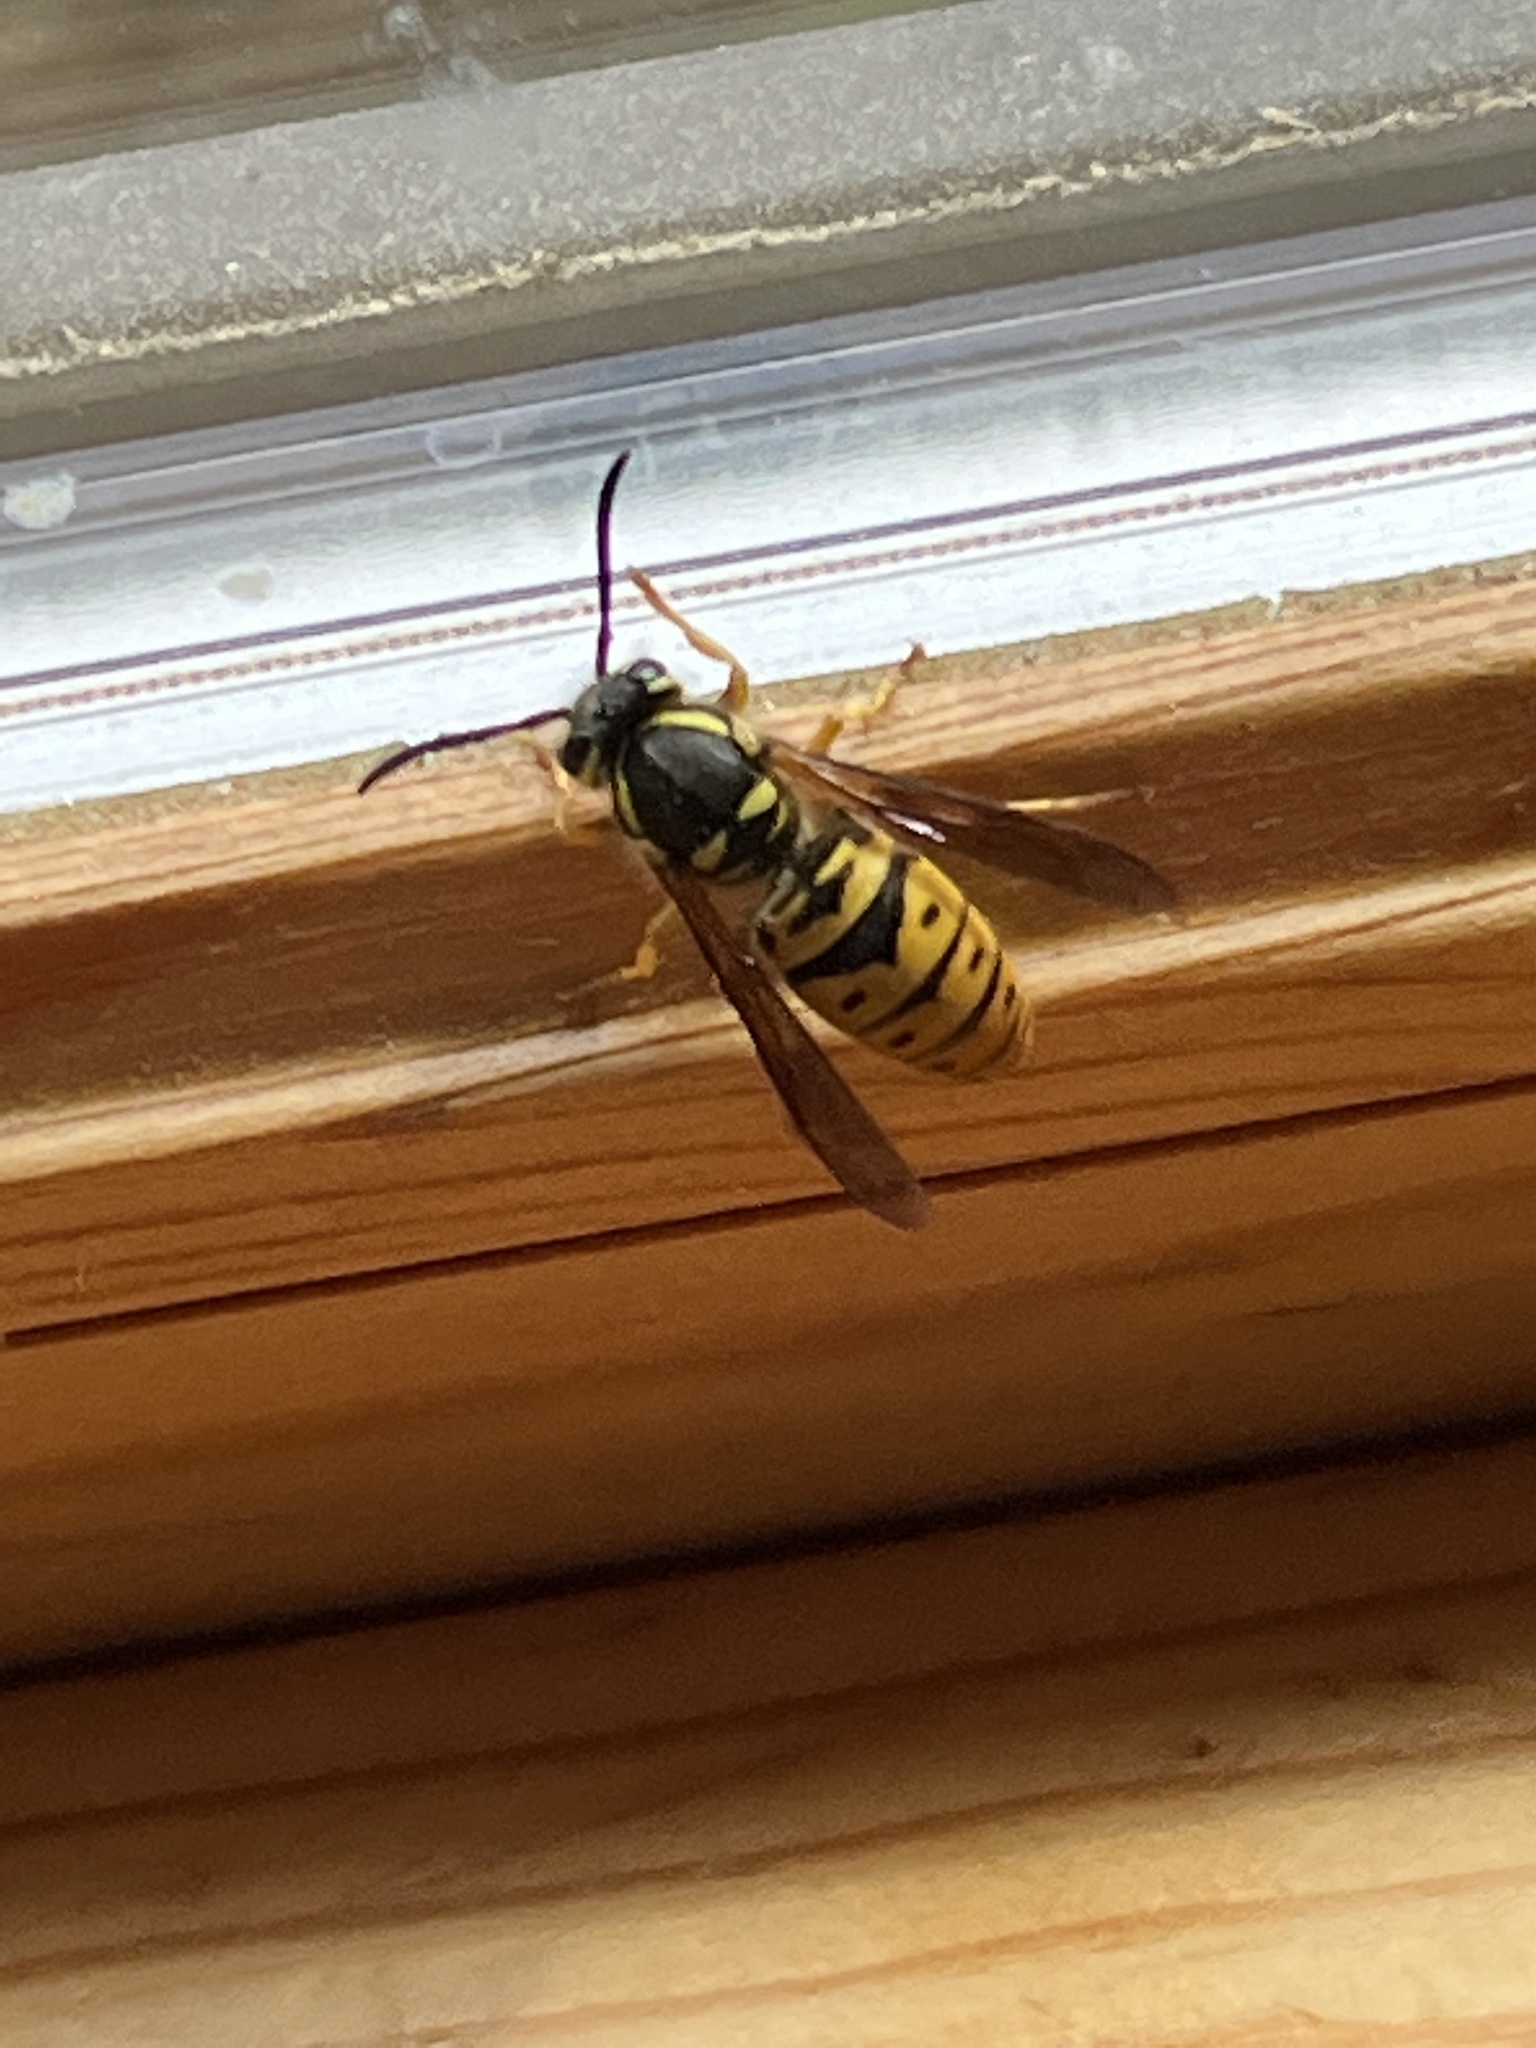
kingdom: Animalia
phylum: Arthropoda
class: Insecta
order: Hymenoptera
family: Vespidae
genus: Vespula
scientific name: Vespula maculifrons
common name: Eastern yellowjacket
